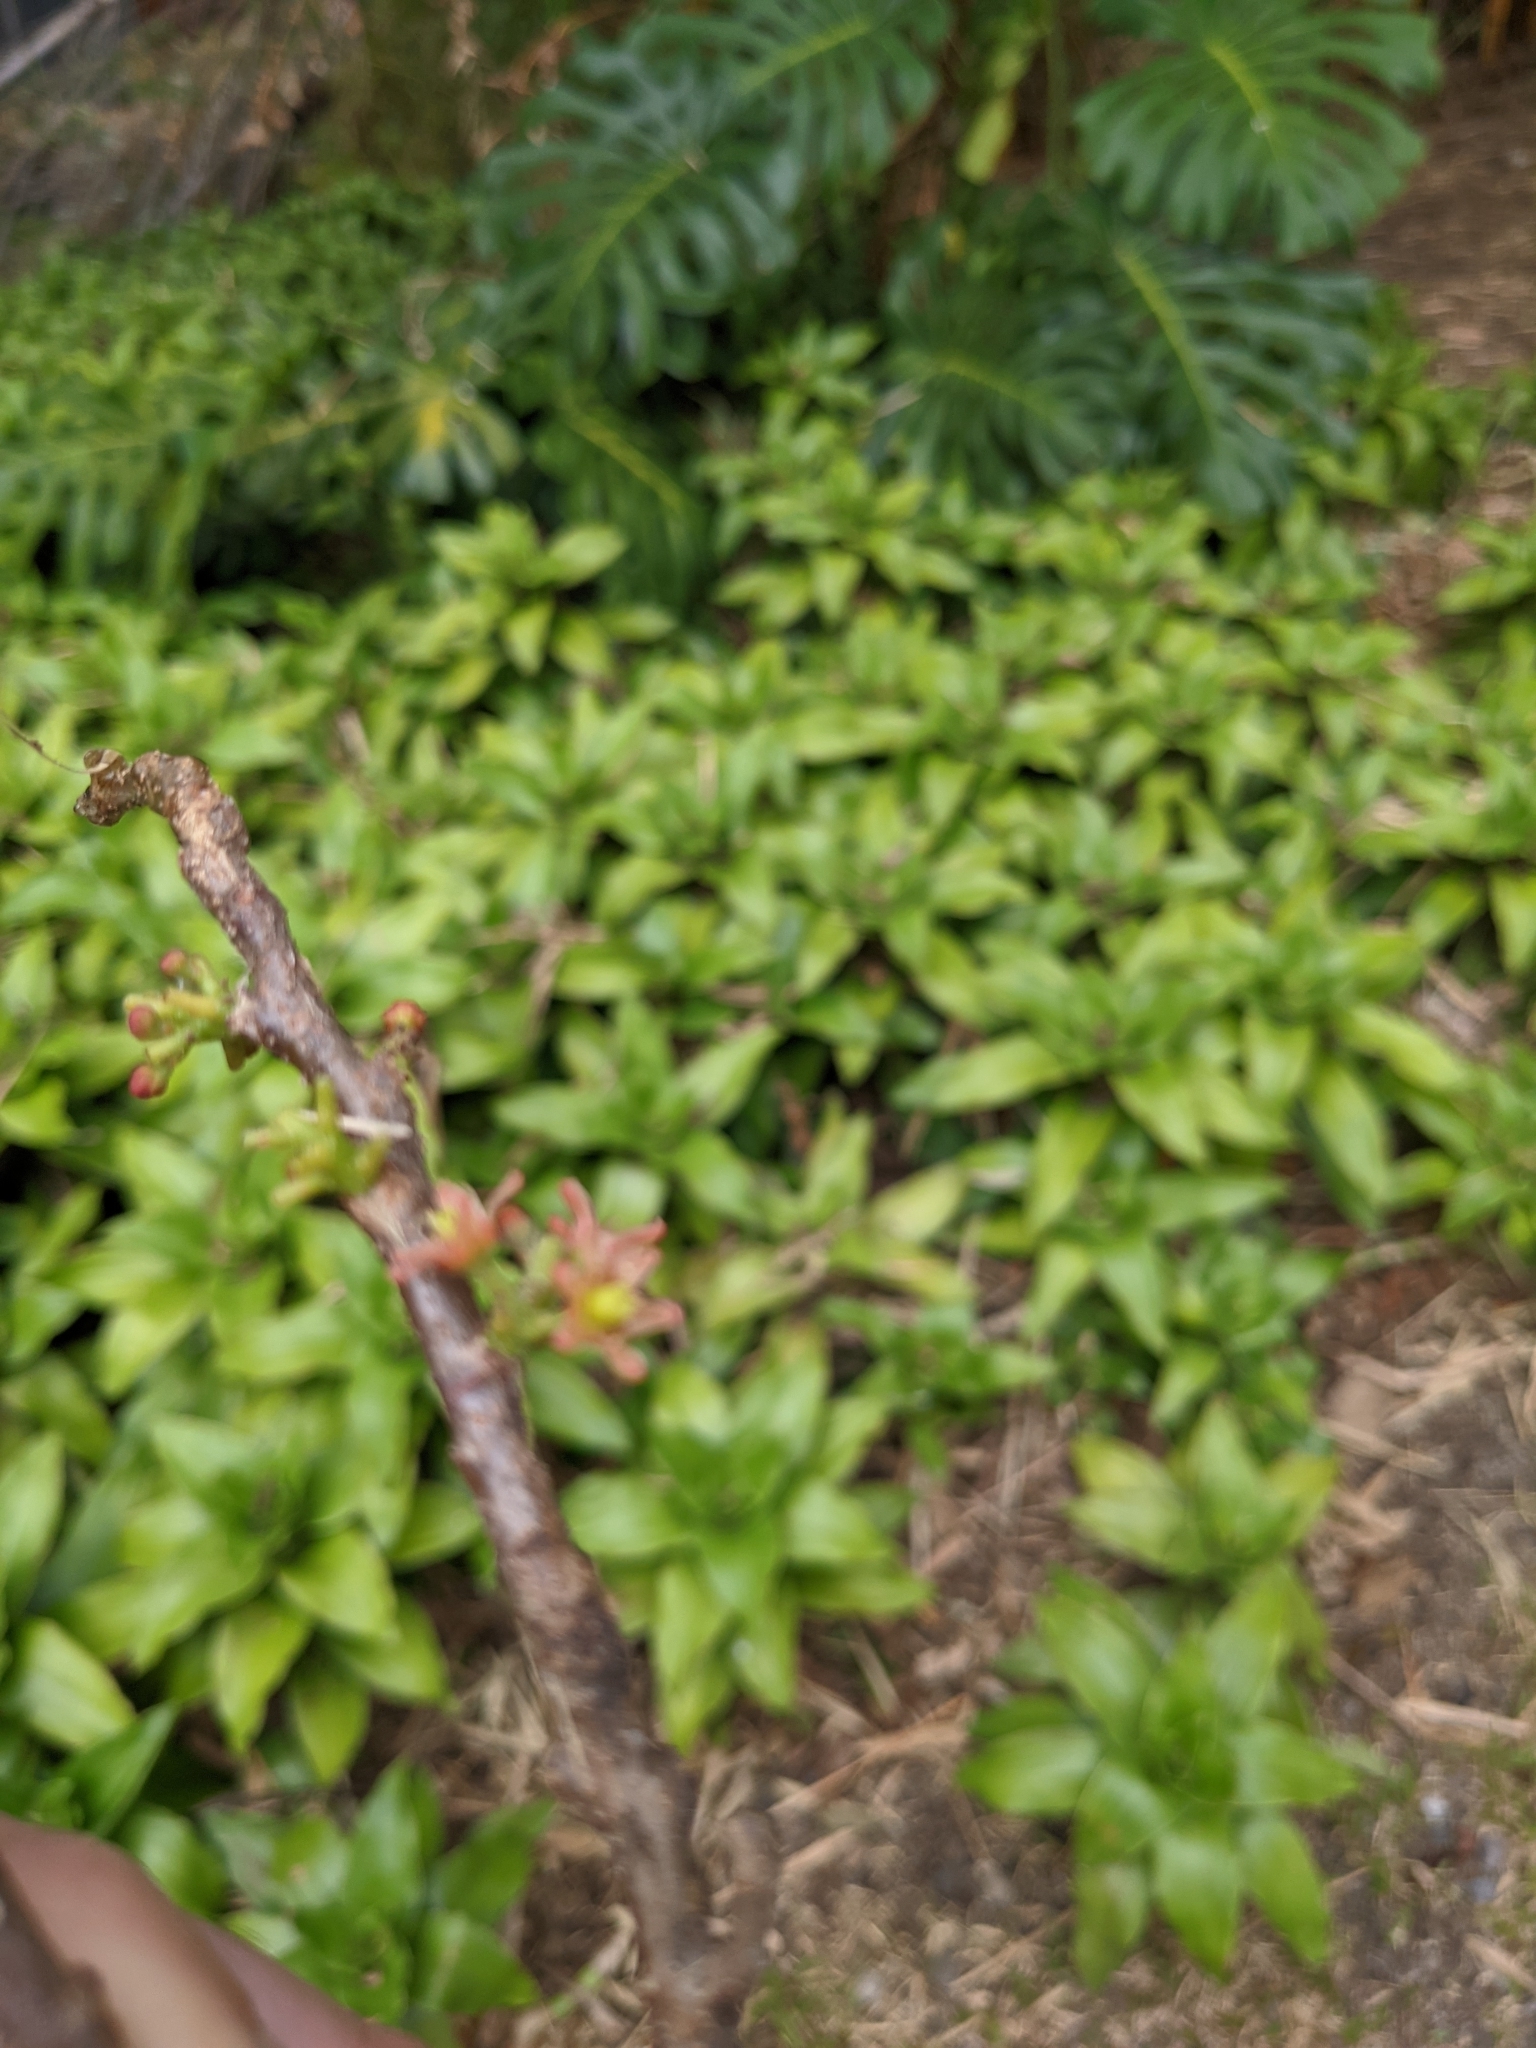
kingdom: Plantae
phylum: Tracheophyta
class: Magnoliopsida
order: Sapindales
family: Anacardiaceae
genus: Spondias
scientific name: Spondias purpurea
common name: Purple mombin
